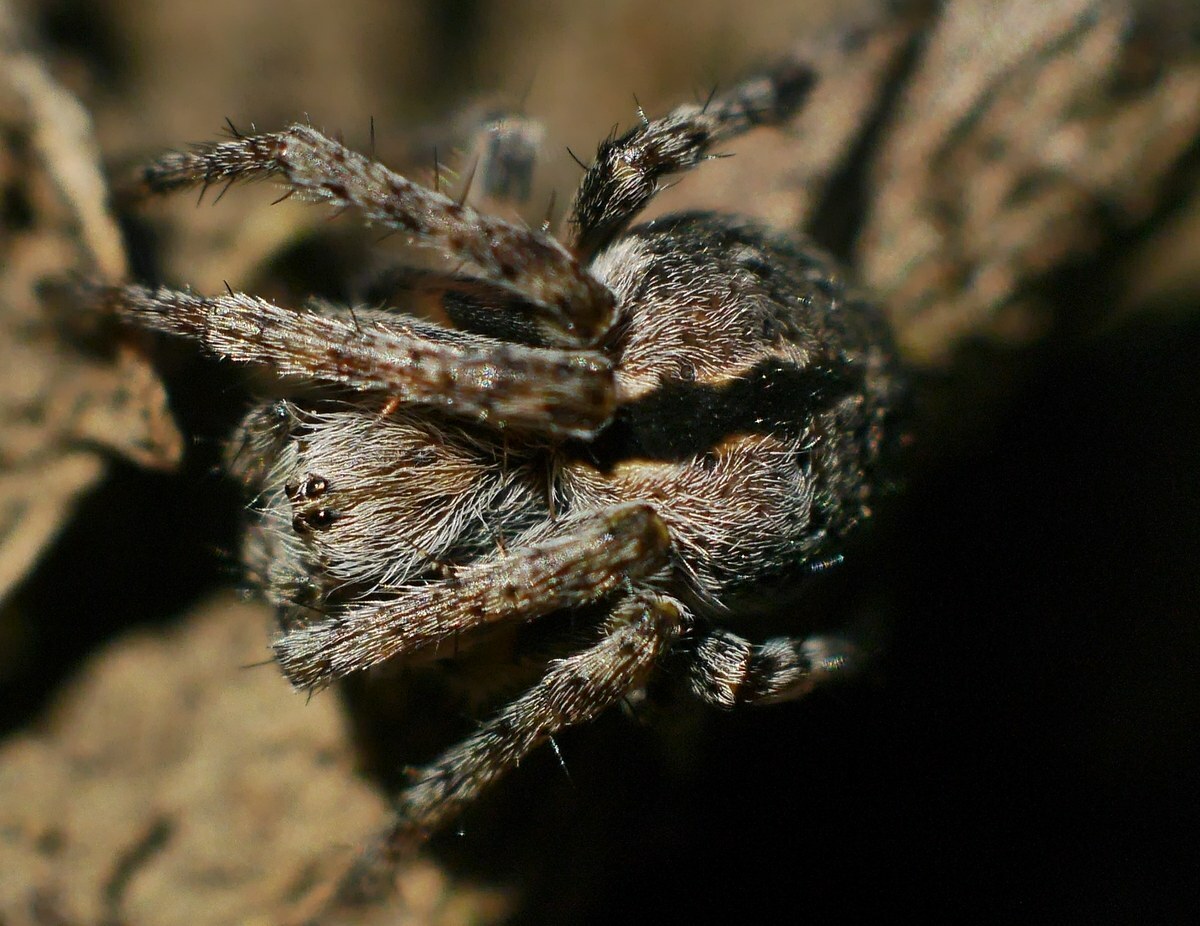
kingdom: Animalia
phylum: Arthropoda
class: Arachnida
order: Araneae
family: Araneidae
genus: Agalenatea
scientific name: Agalenatea redii
